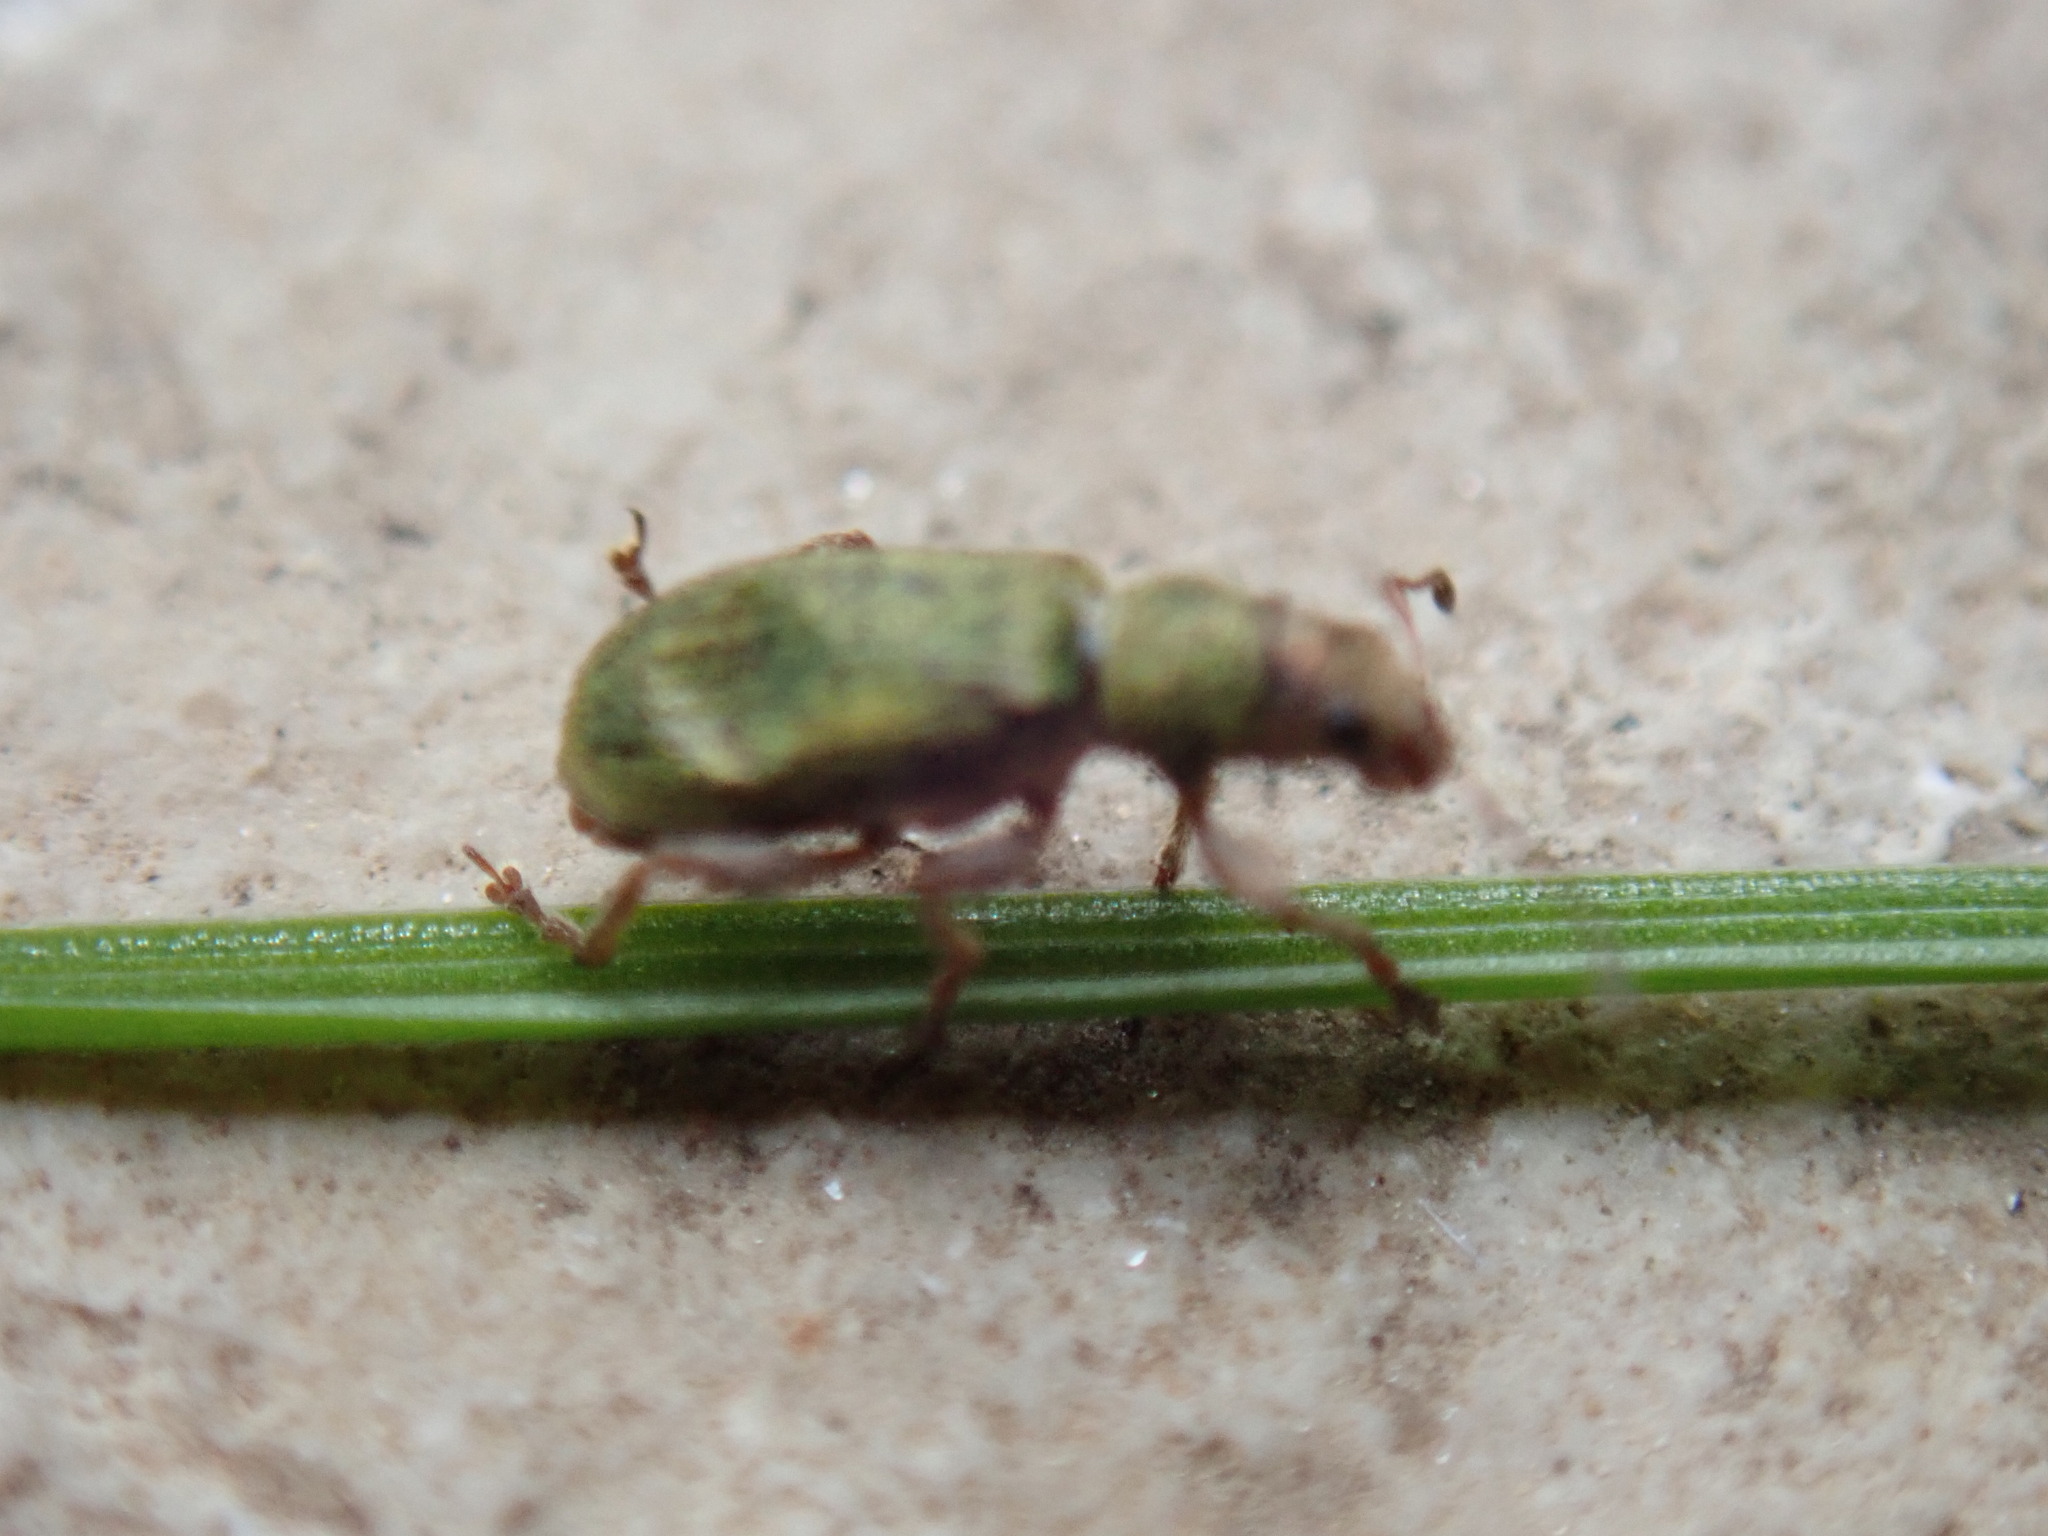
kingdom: Animalia
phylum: Arthropoda
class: Insecta
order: Coleoptera
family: Curculionidae
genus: Pachyrhinus
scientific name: Pachyrhinus lethierryi
